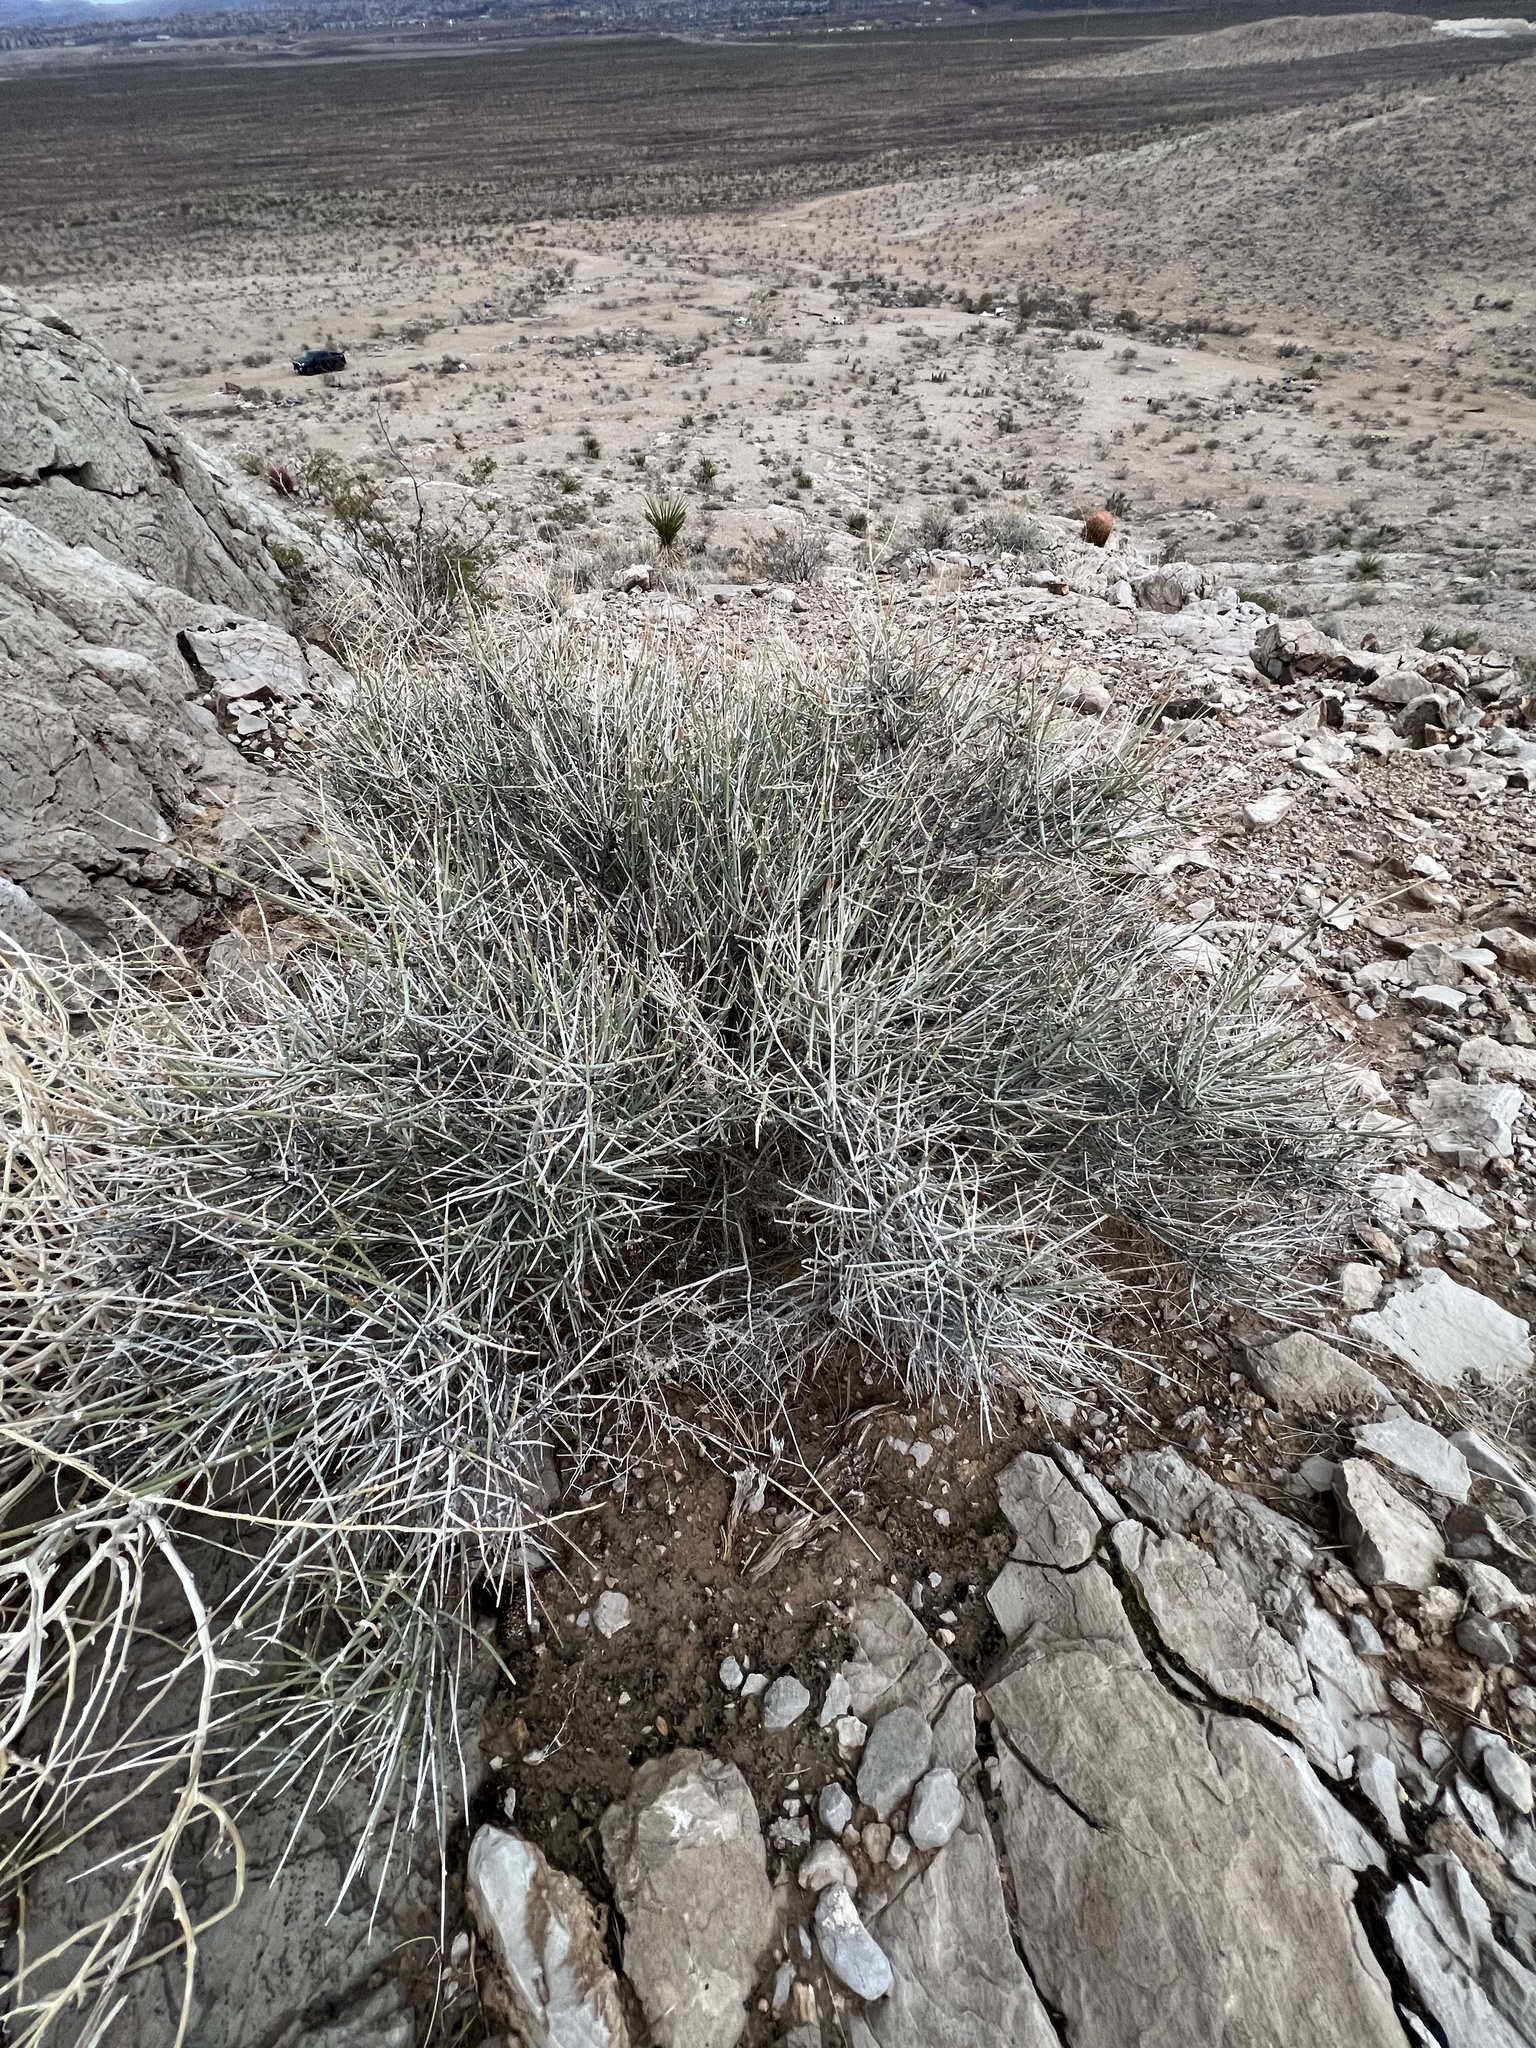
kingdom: Plantae
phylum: Tracheophyta
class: Gnetopsida
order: Ephedrales
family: Ephedraceae
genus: Ephedra
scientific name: Ephedra nevadensis
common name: Gray ephedra
